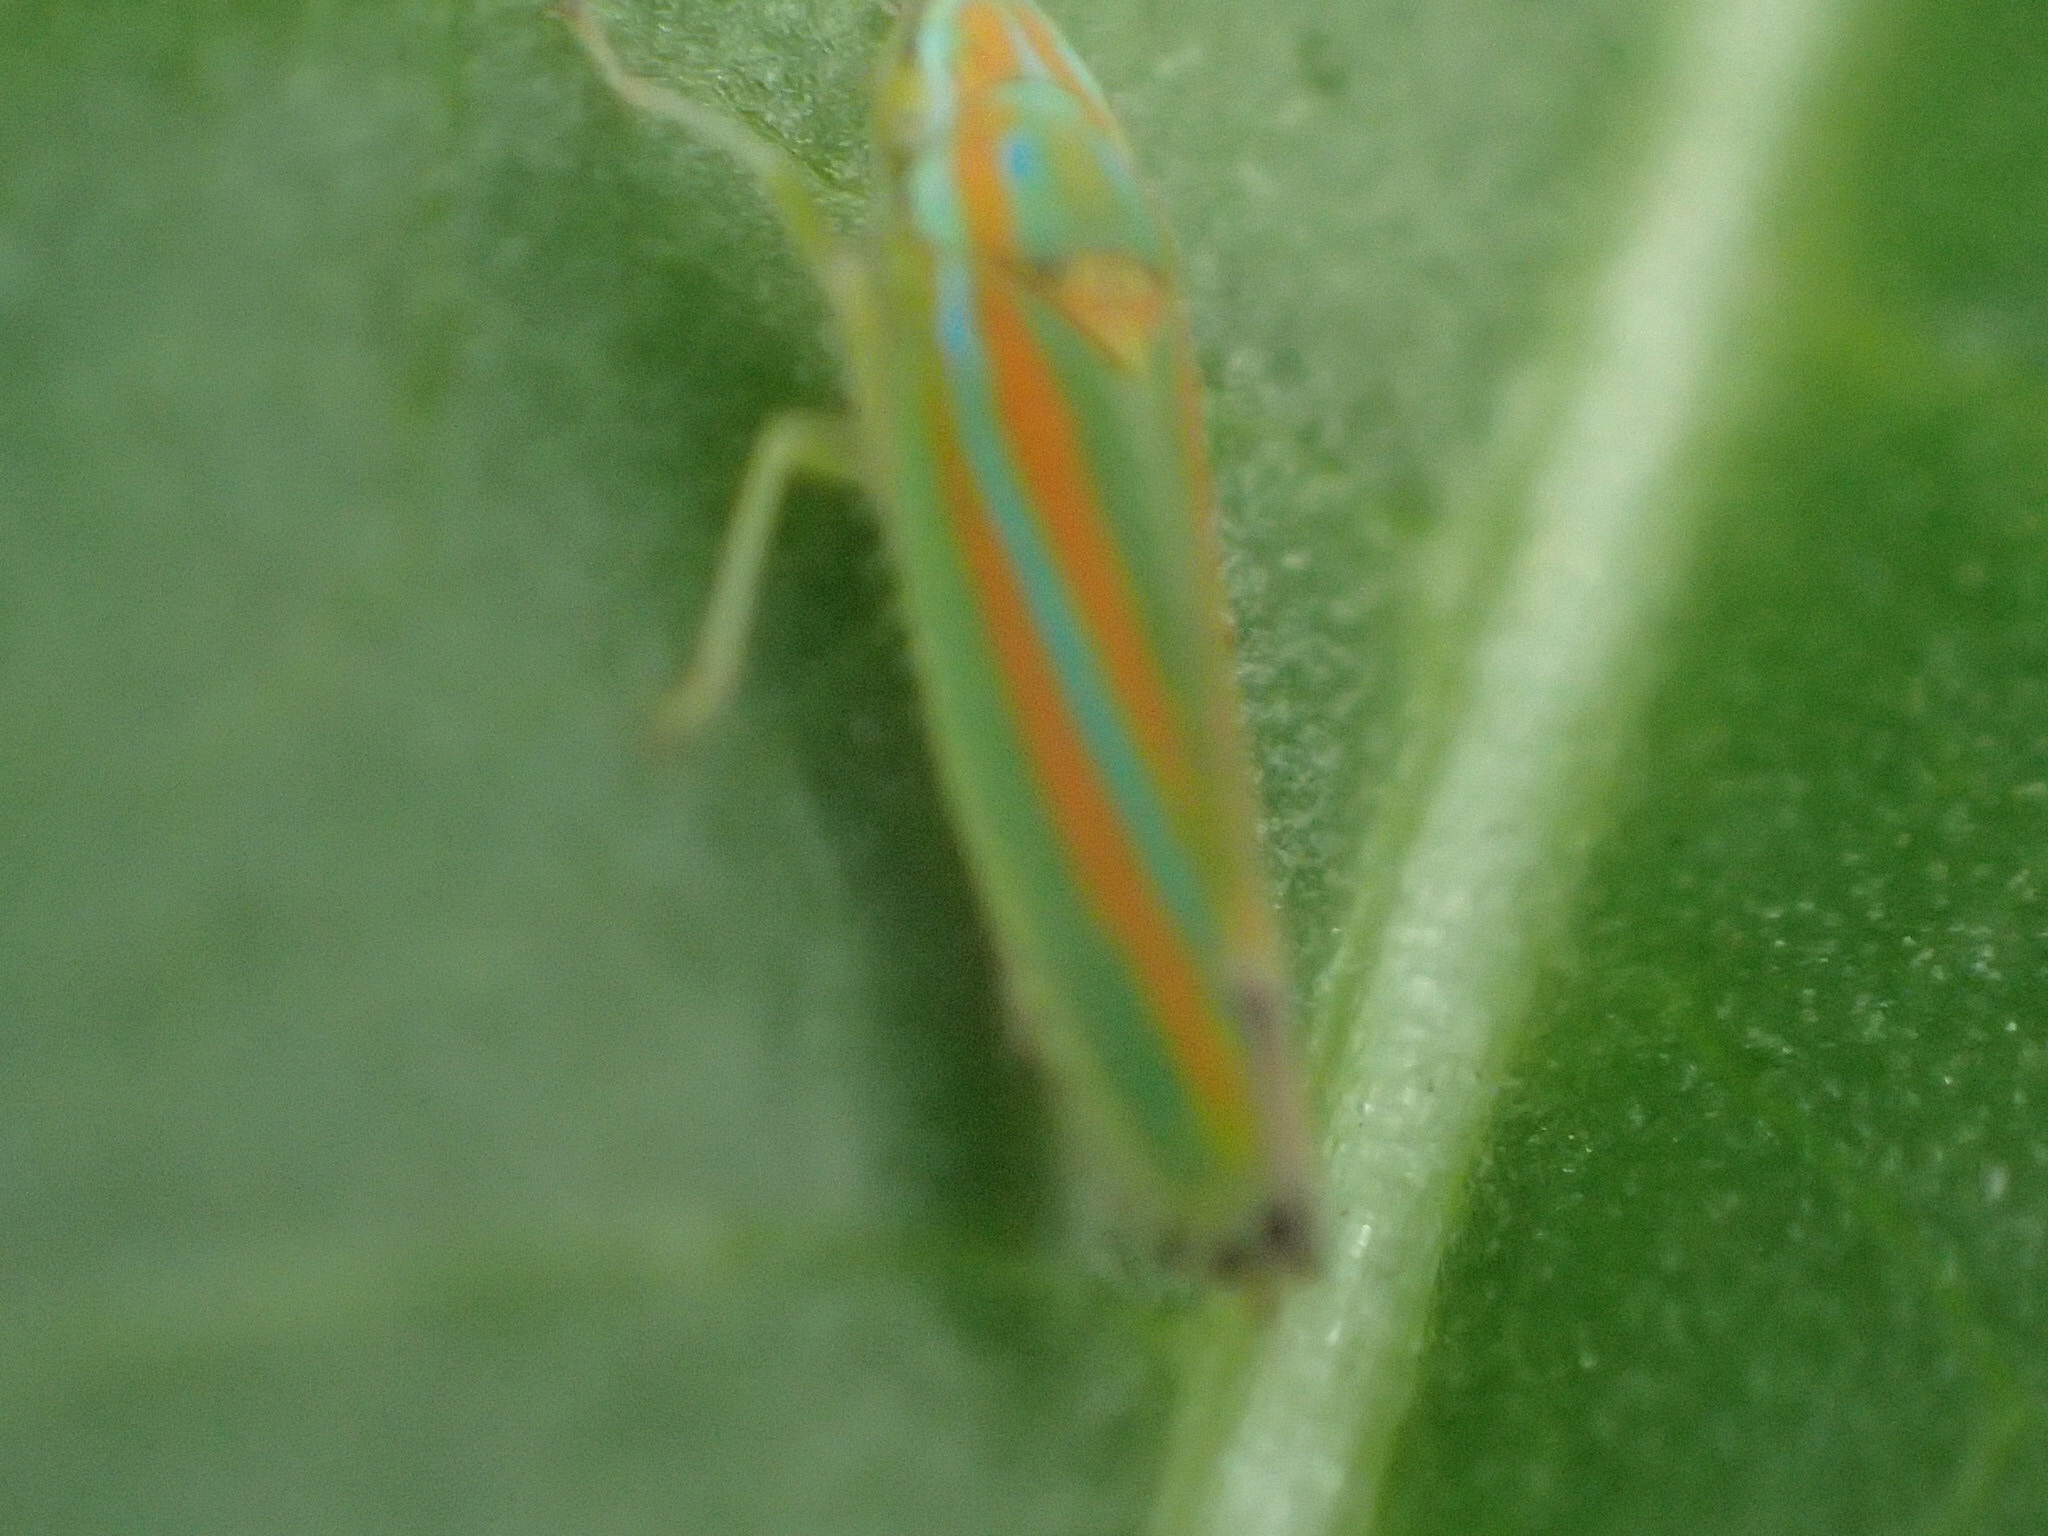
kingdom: Animalia
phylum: Arthropoda
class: Insecta
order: Hemiptera
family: Cicadellidae
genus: Graphocephala
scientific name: Graphocephala versuta
